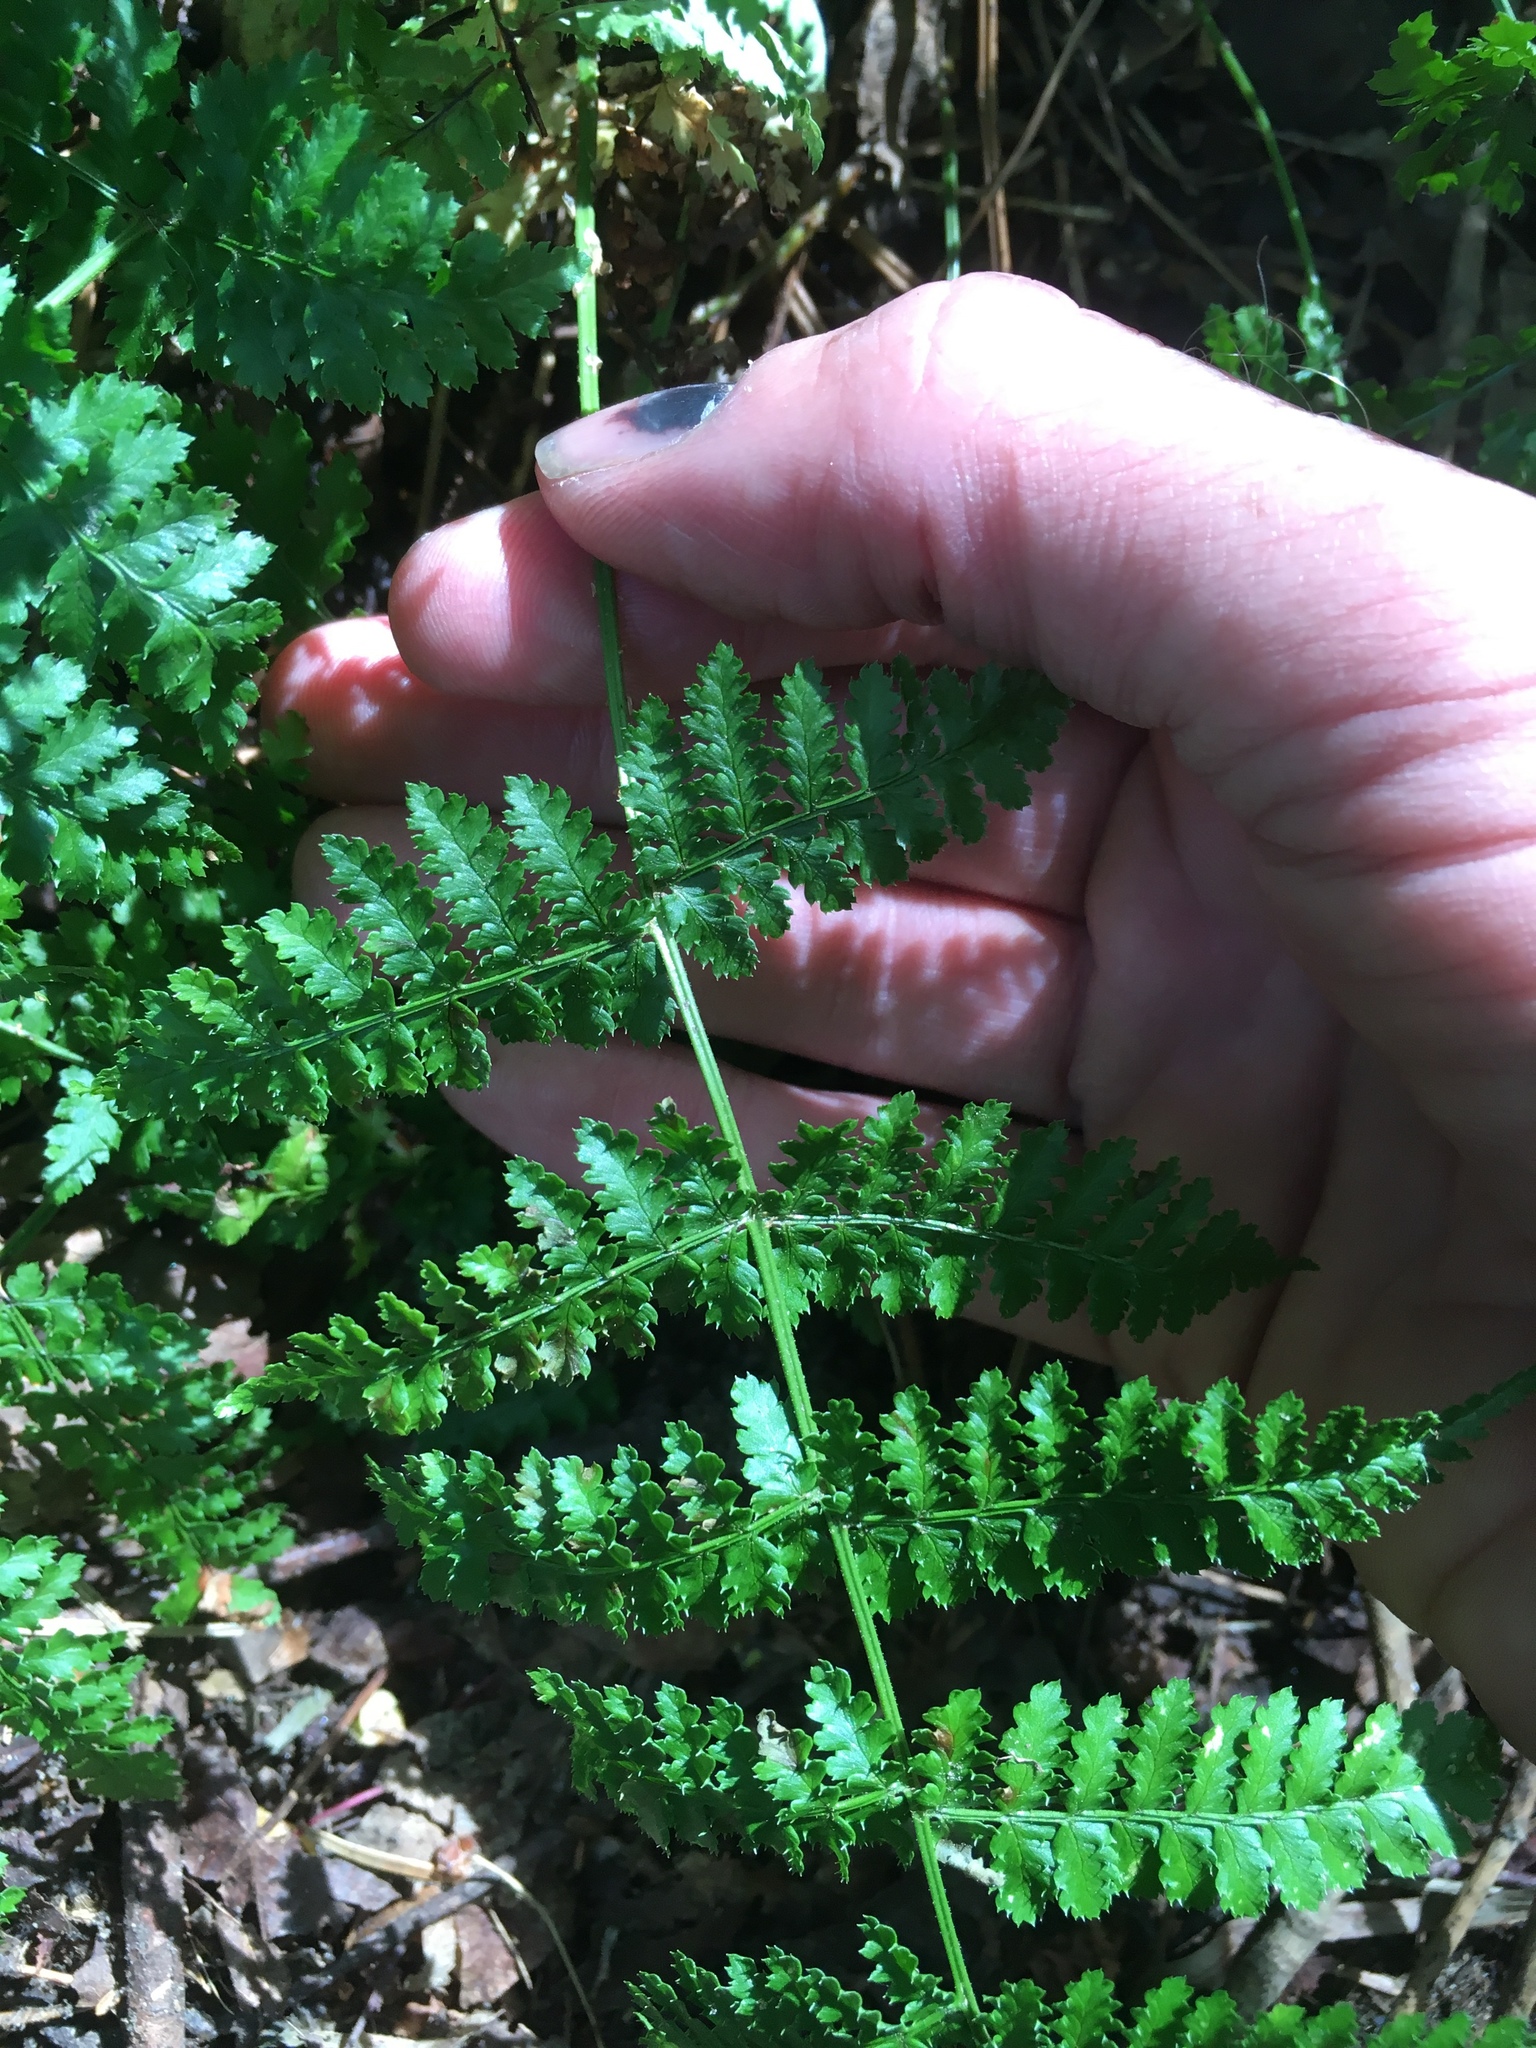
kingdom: Plantae
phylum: Tracheophyta
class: Polypodiopsida
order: Polypodiales
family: Dryopteridaceae
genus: Dryopteris
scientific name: Dryopteris intermedia
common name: Evergreen wood fern
